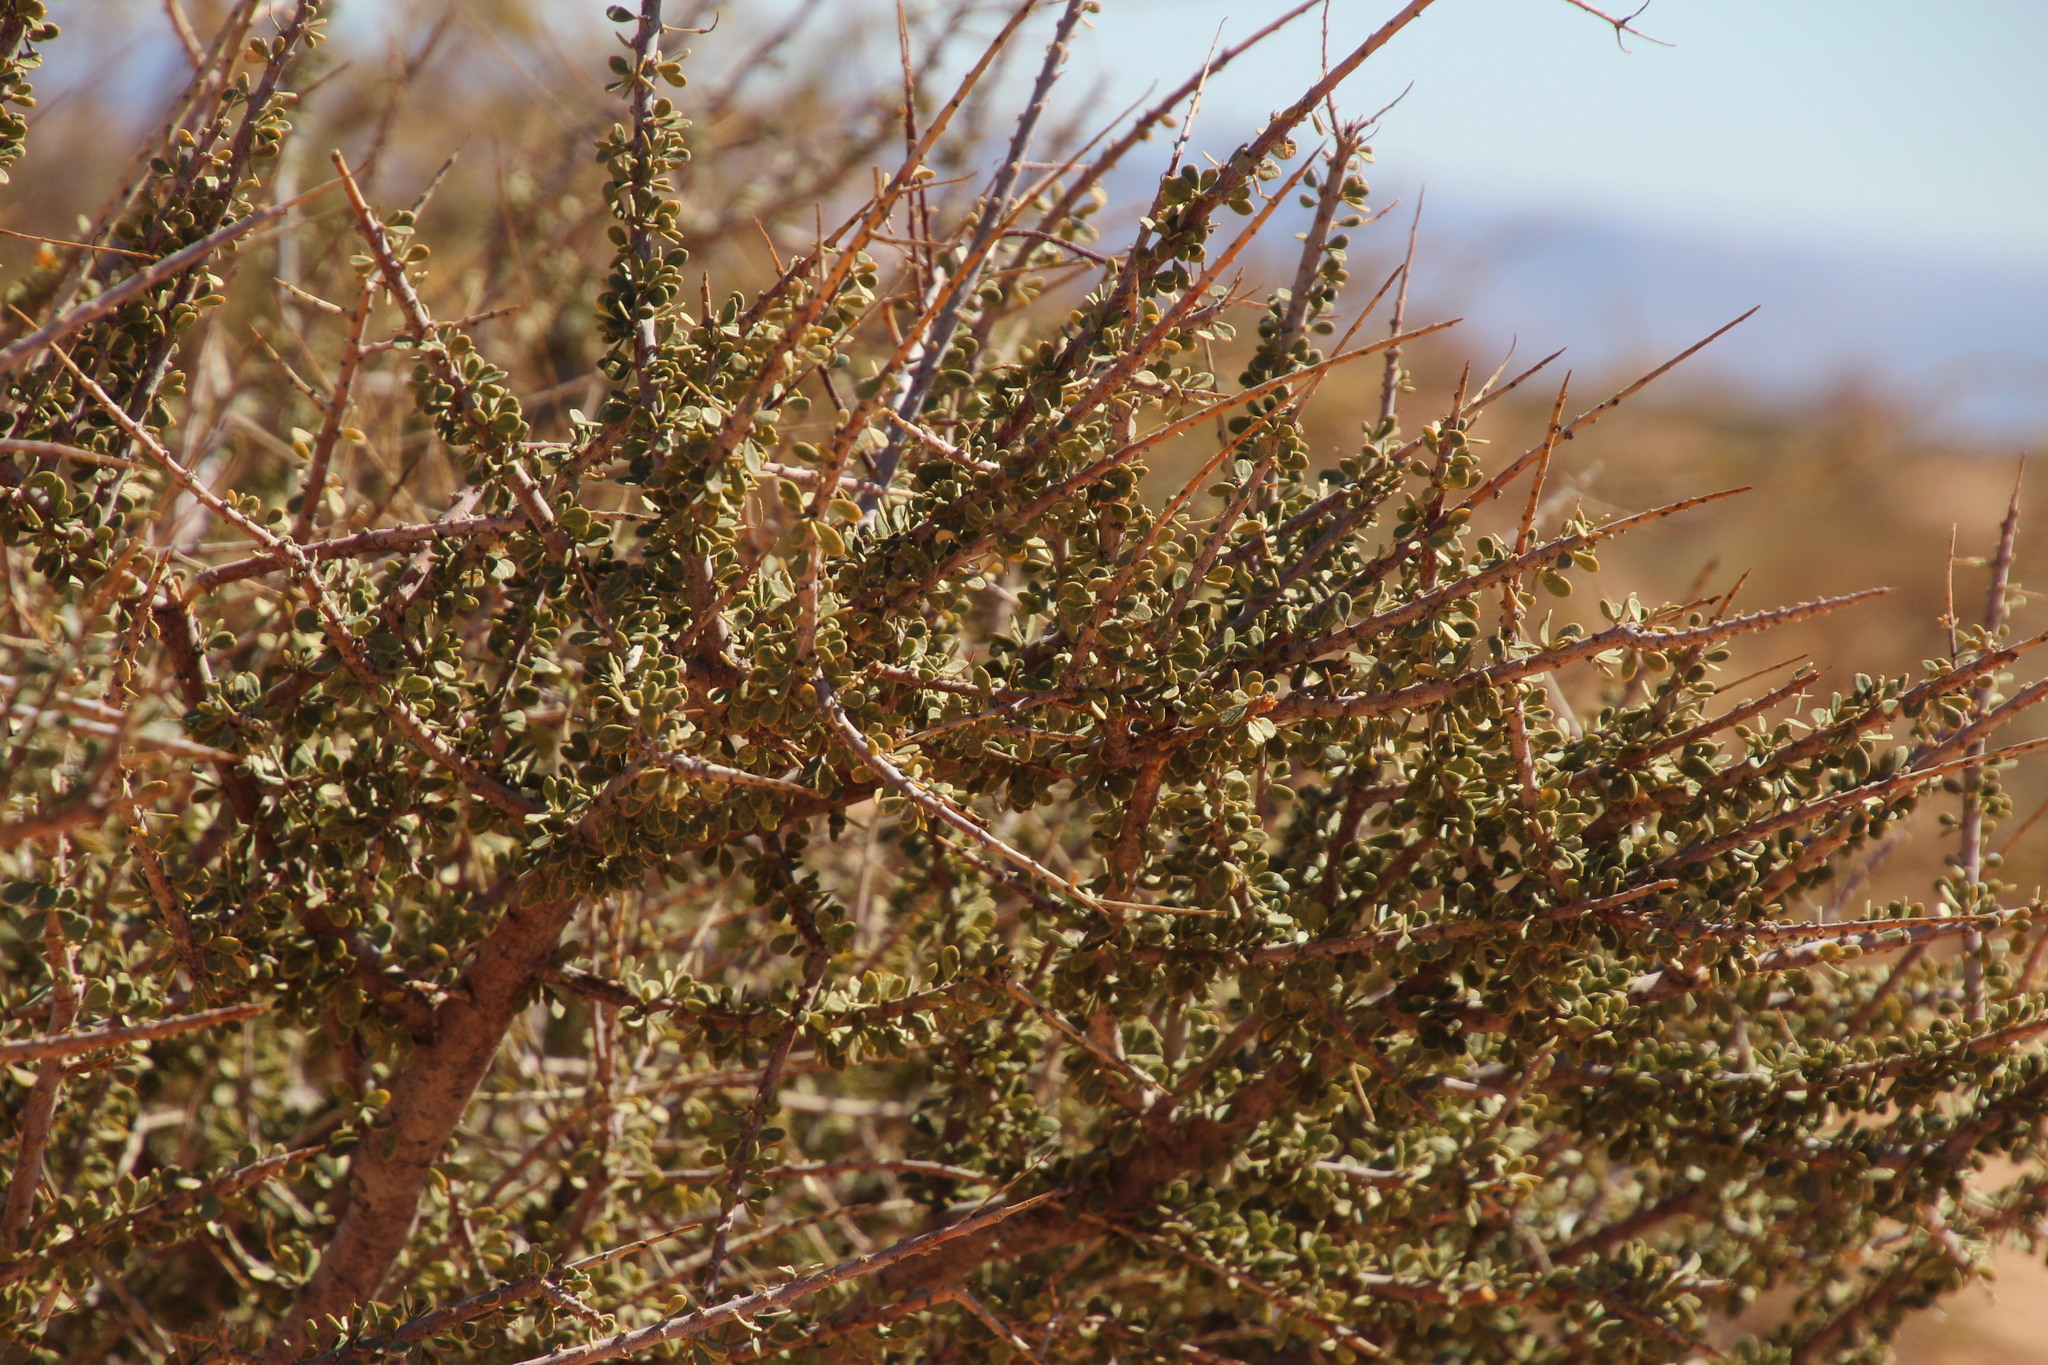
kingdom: Plantae
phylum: Tracheophyta
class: Magnoliopsida
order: Brassicales
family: Capparaceae
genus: Boscia
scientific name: Boscia foetida
